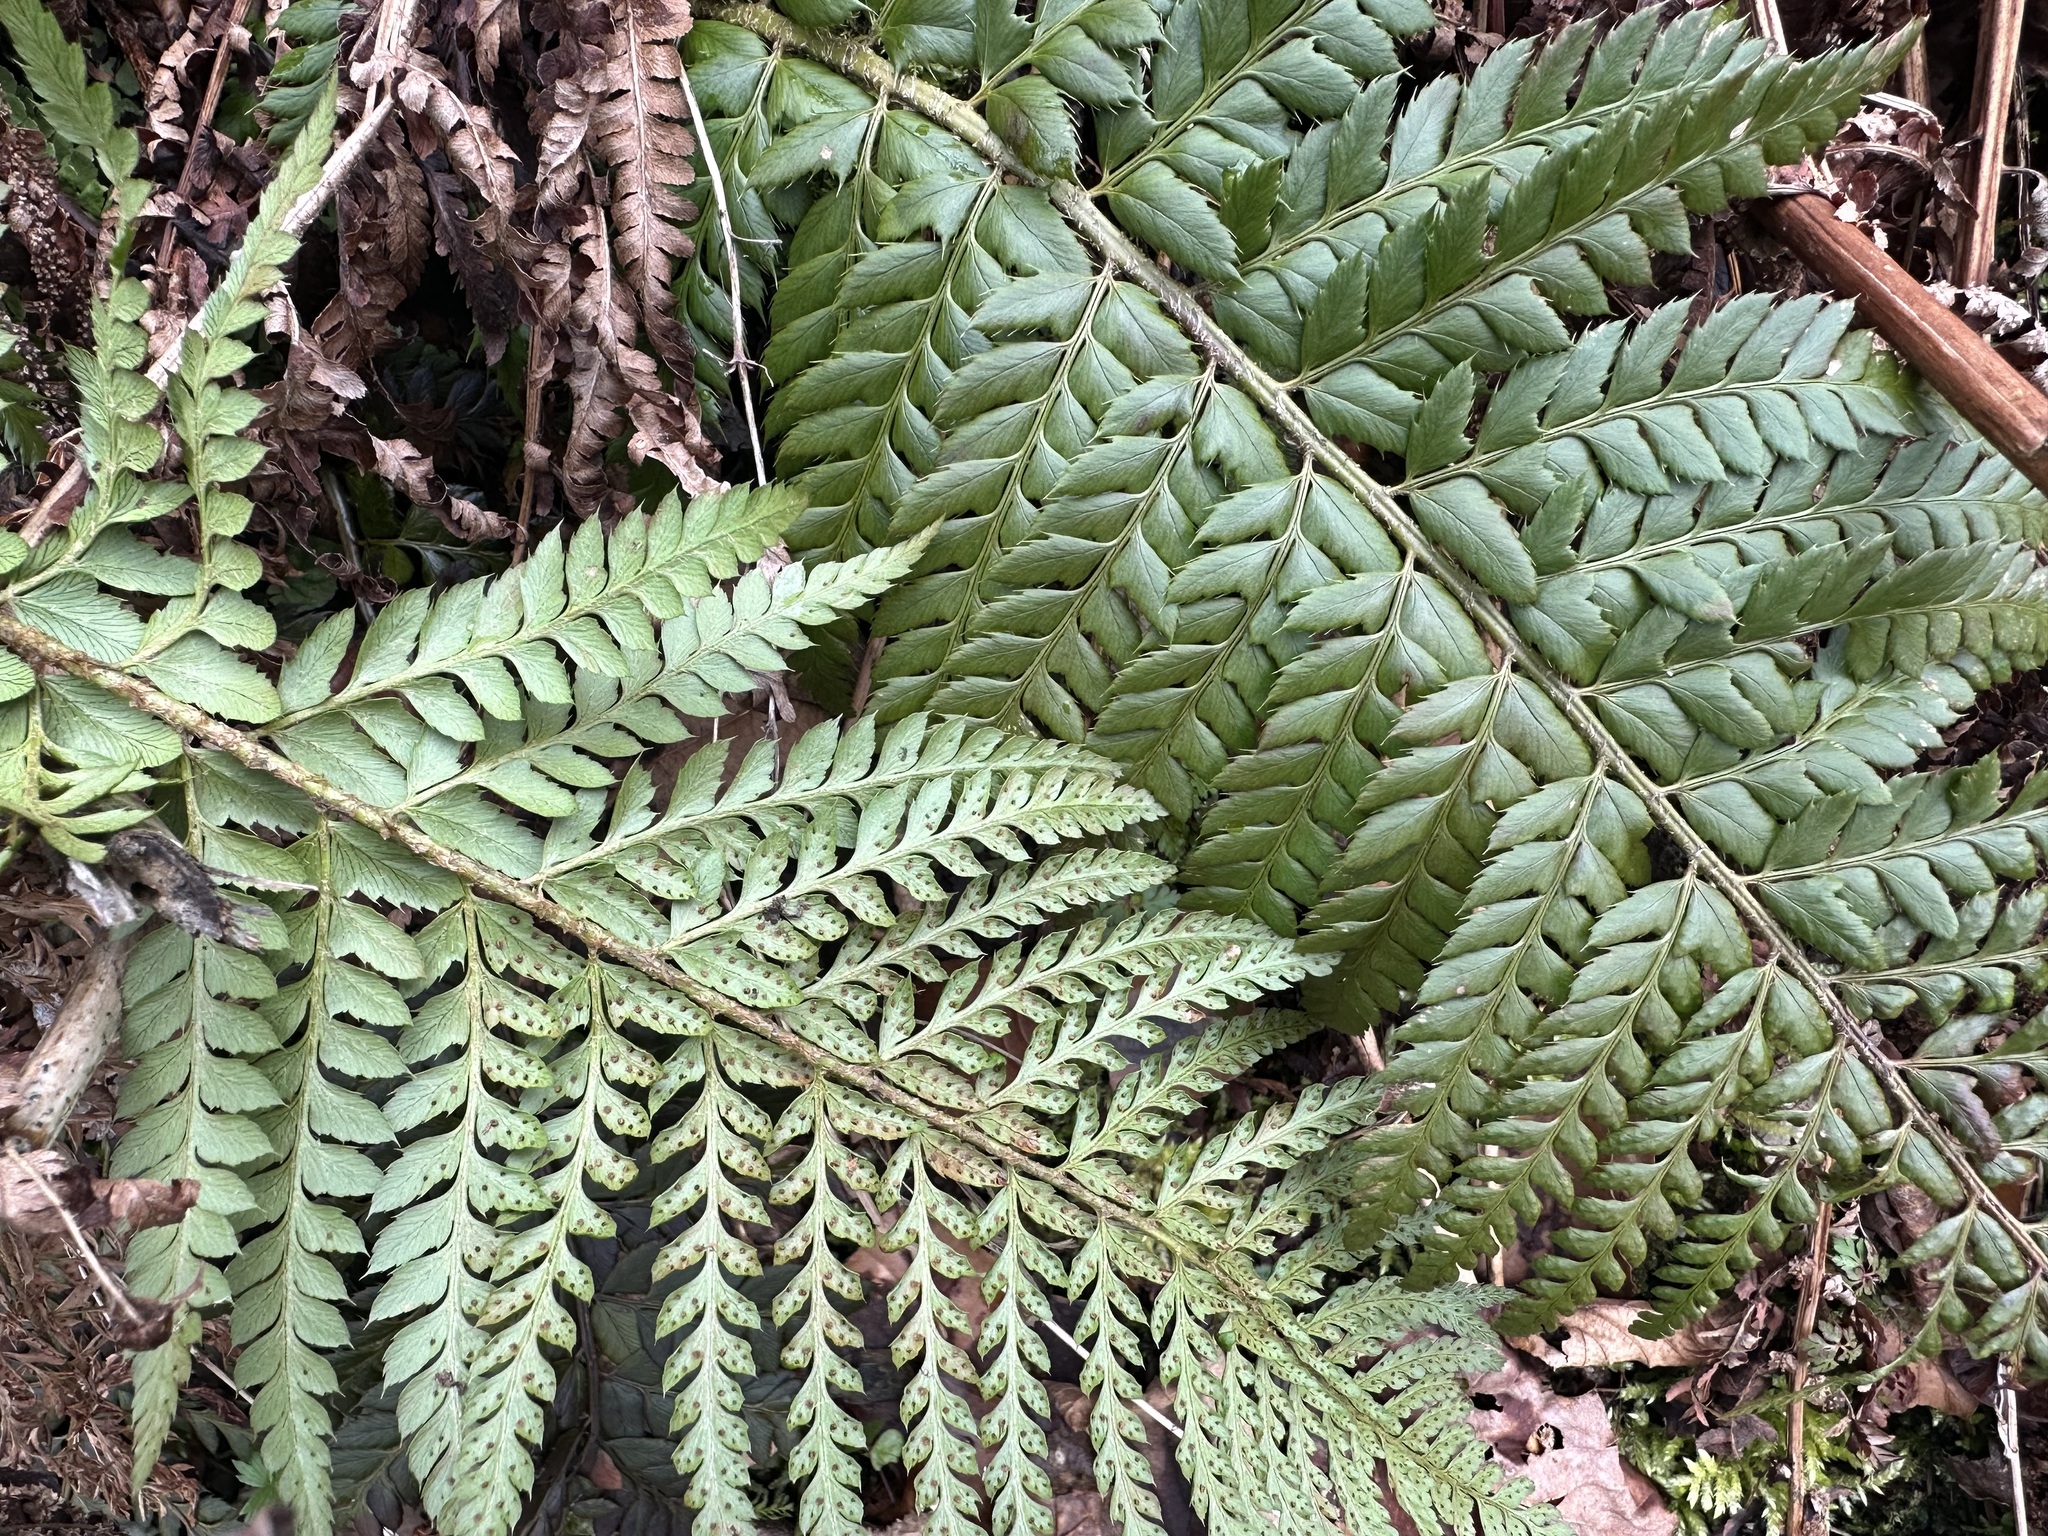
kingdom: Plantae
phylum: Tracheophyta
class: Polypodiopsida
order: Polypodiales
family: Dryopteridaceae
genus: Polystichum
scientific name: Polystichum aculeatum
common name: Hard shield-fern
